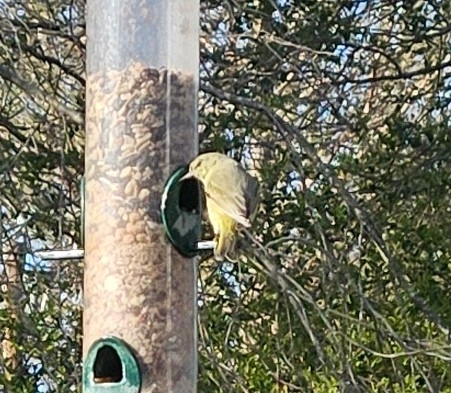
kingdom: Animalia
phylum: Chordata
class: Aves
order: Passeriformes
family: Parulidae
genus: Leiothlypis
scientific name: Leiothlypis celata
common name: Orange-crowned warbler
